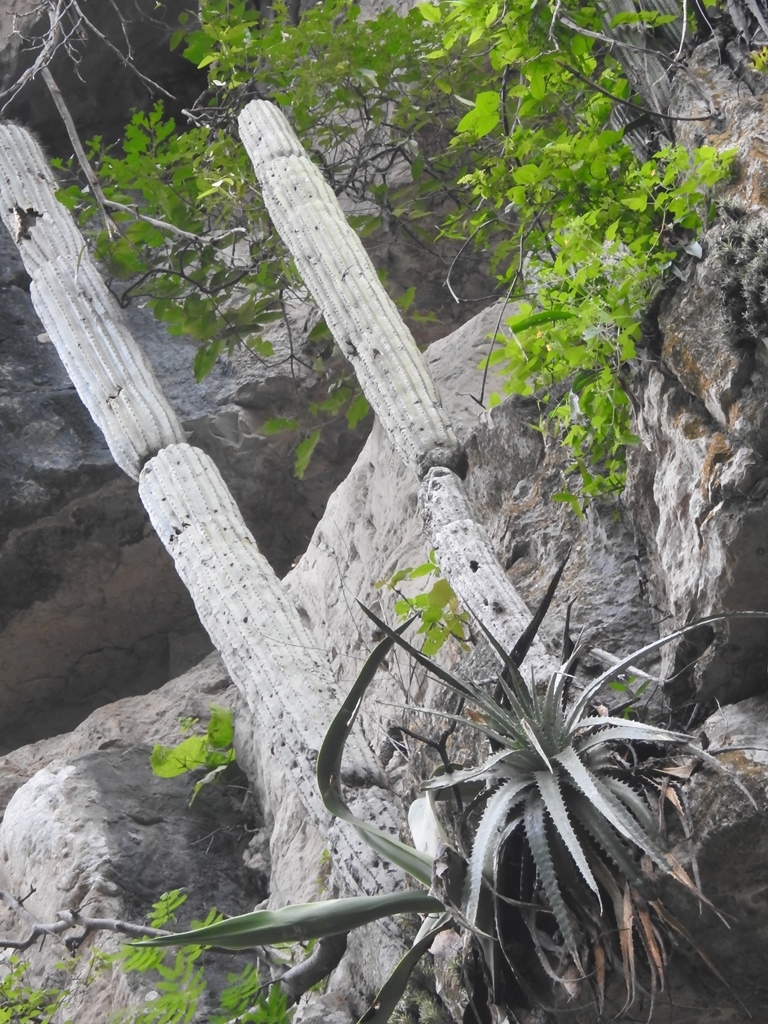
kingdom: Plantae
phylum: Tracheophyta
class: Magnoliopsida
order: Caryophyllales
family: Cactaceae
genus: Cephalocereus
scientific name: Cephalocereus apicicephalium
